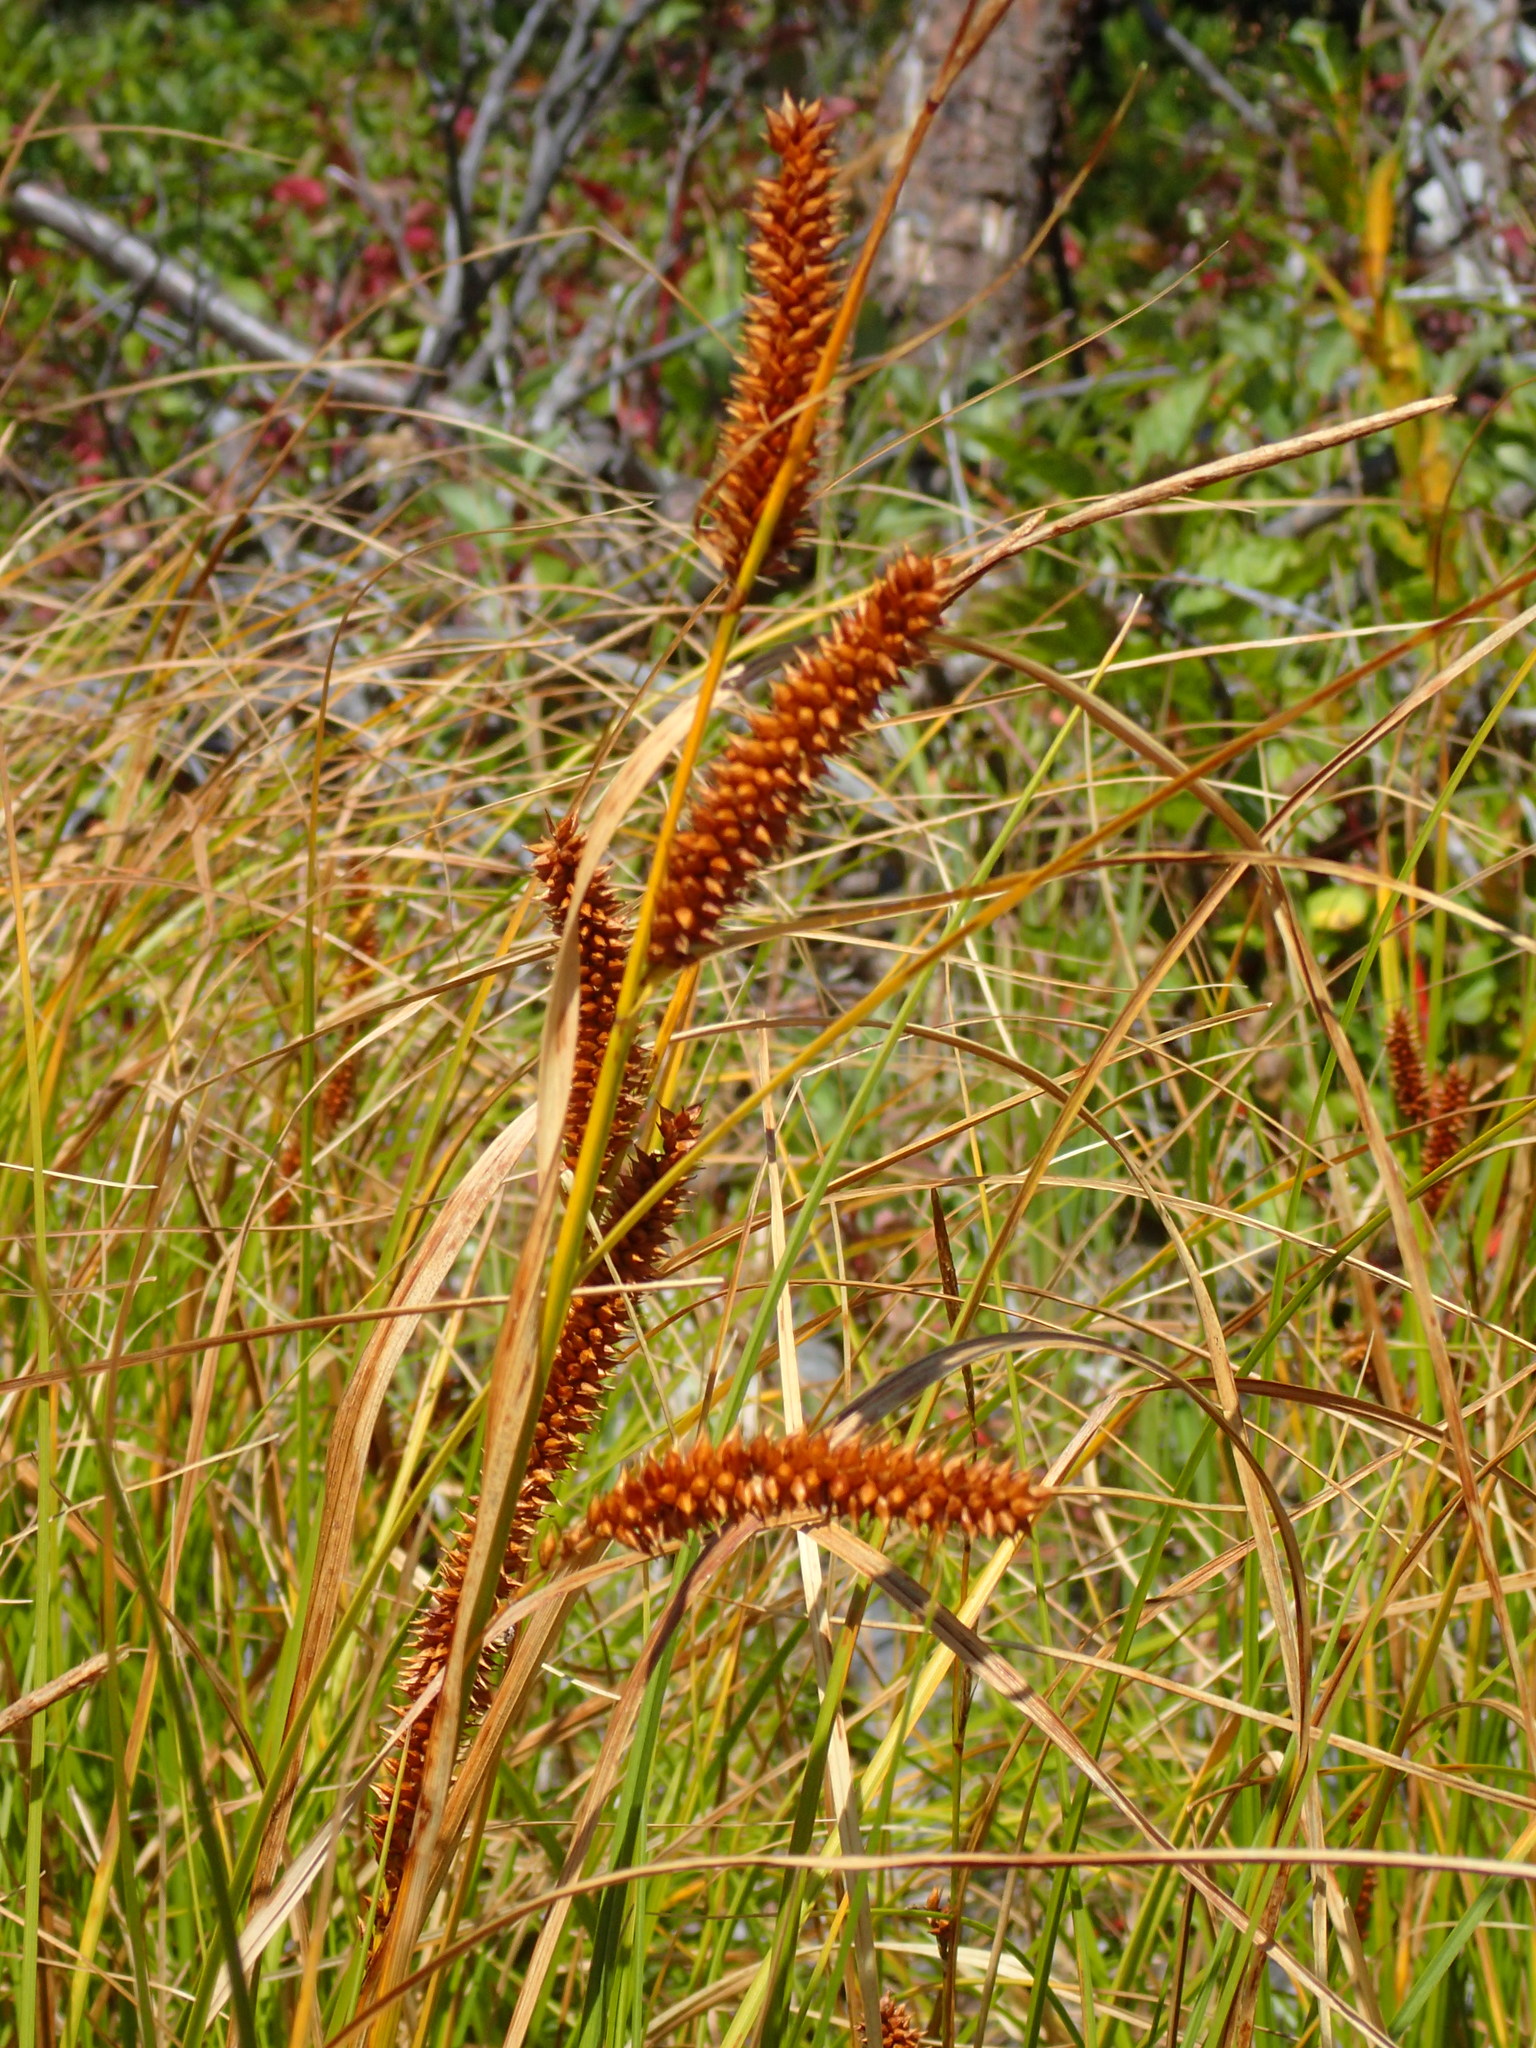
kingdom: Plantae
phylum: Tracheophyta
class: Liliopsida
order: Poales
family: Cyperaceae
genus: Carex
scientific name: Carex utriculata
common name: Beaked sedge
